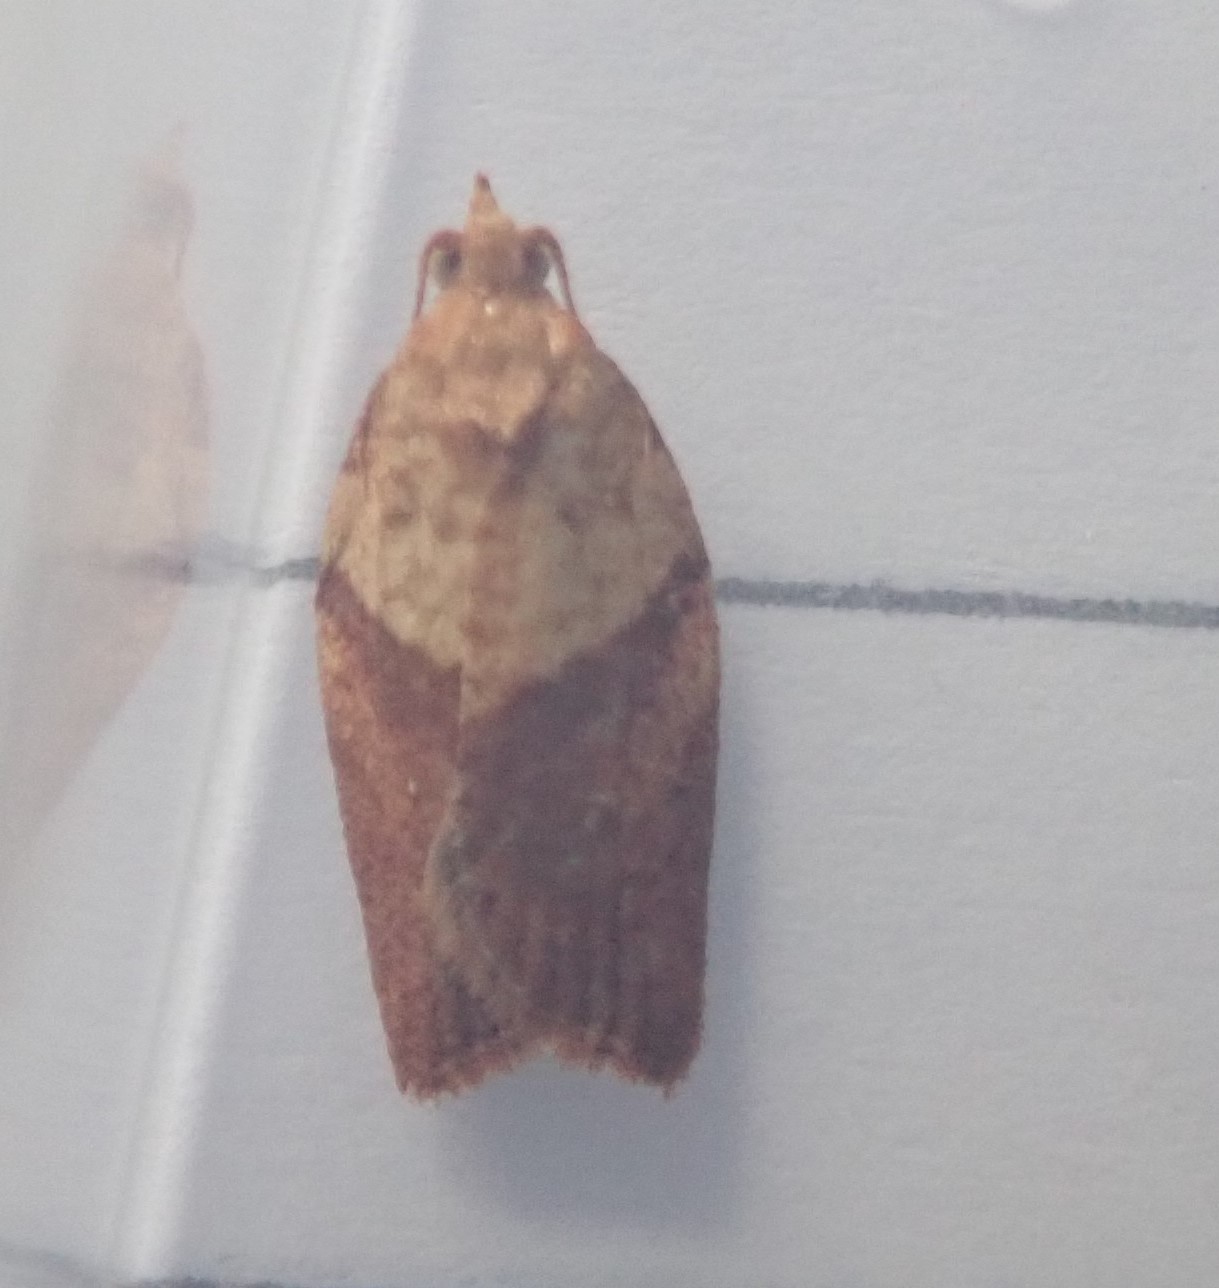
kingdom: Animalia
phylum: Arthropoda
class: Insecta
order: Lepidoptera
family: Tortricidae
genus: Epiphyas
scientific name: Epiphyas postvittana
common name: Light brown apple moth
